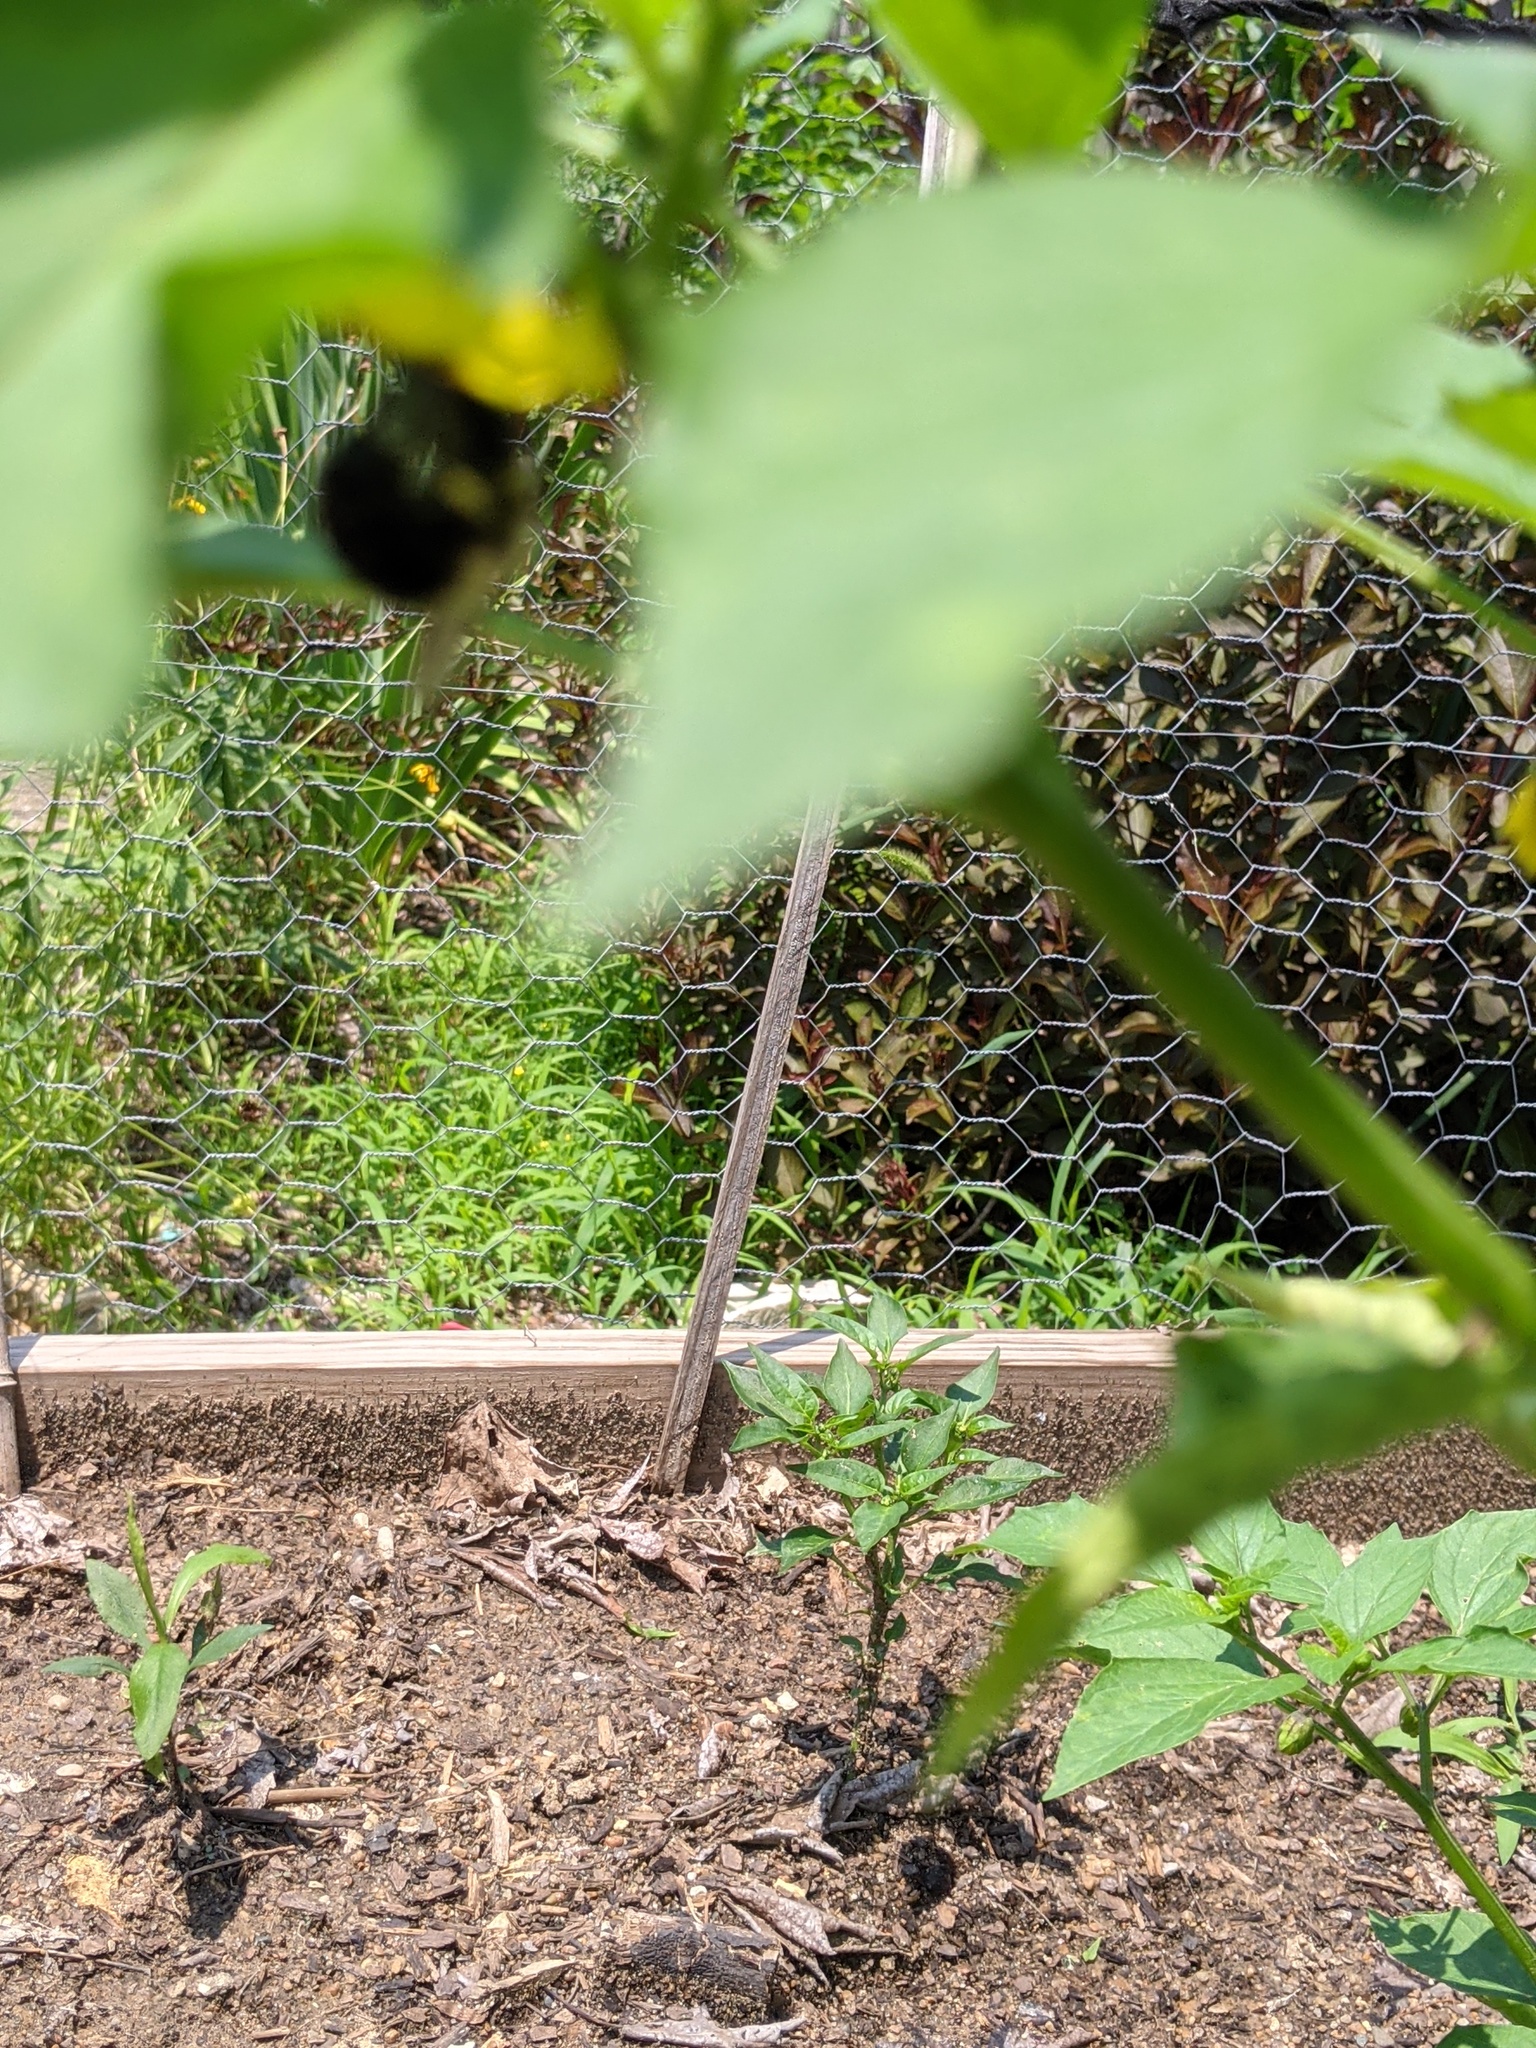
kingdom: Animalia
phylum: Arthropoda
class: Insecta
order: Hymenoptera
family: Apidae
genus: Bombus
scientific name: Bombus impatiens
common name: Common eastern bumble bee
